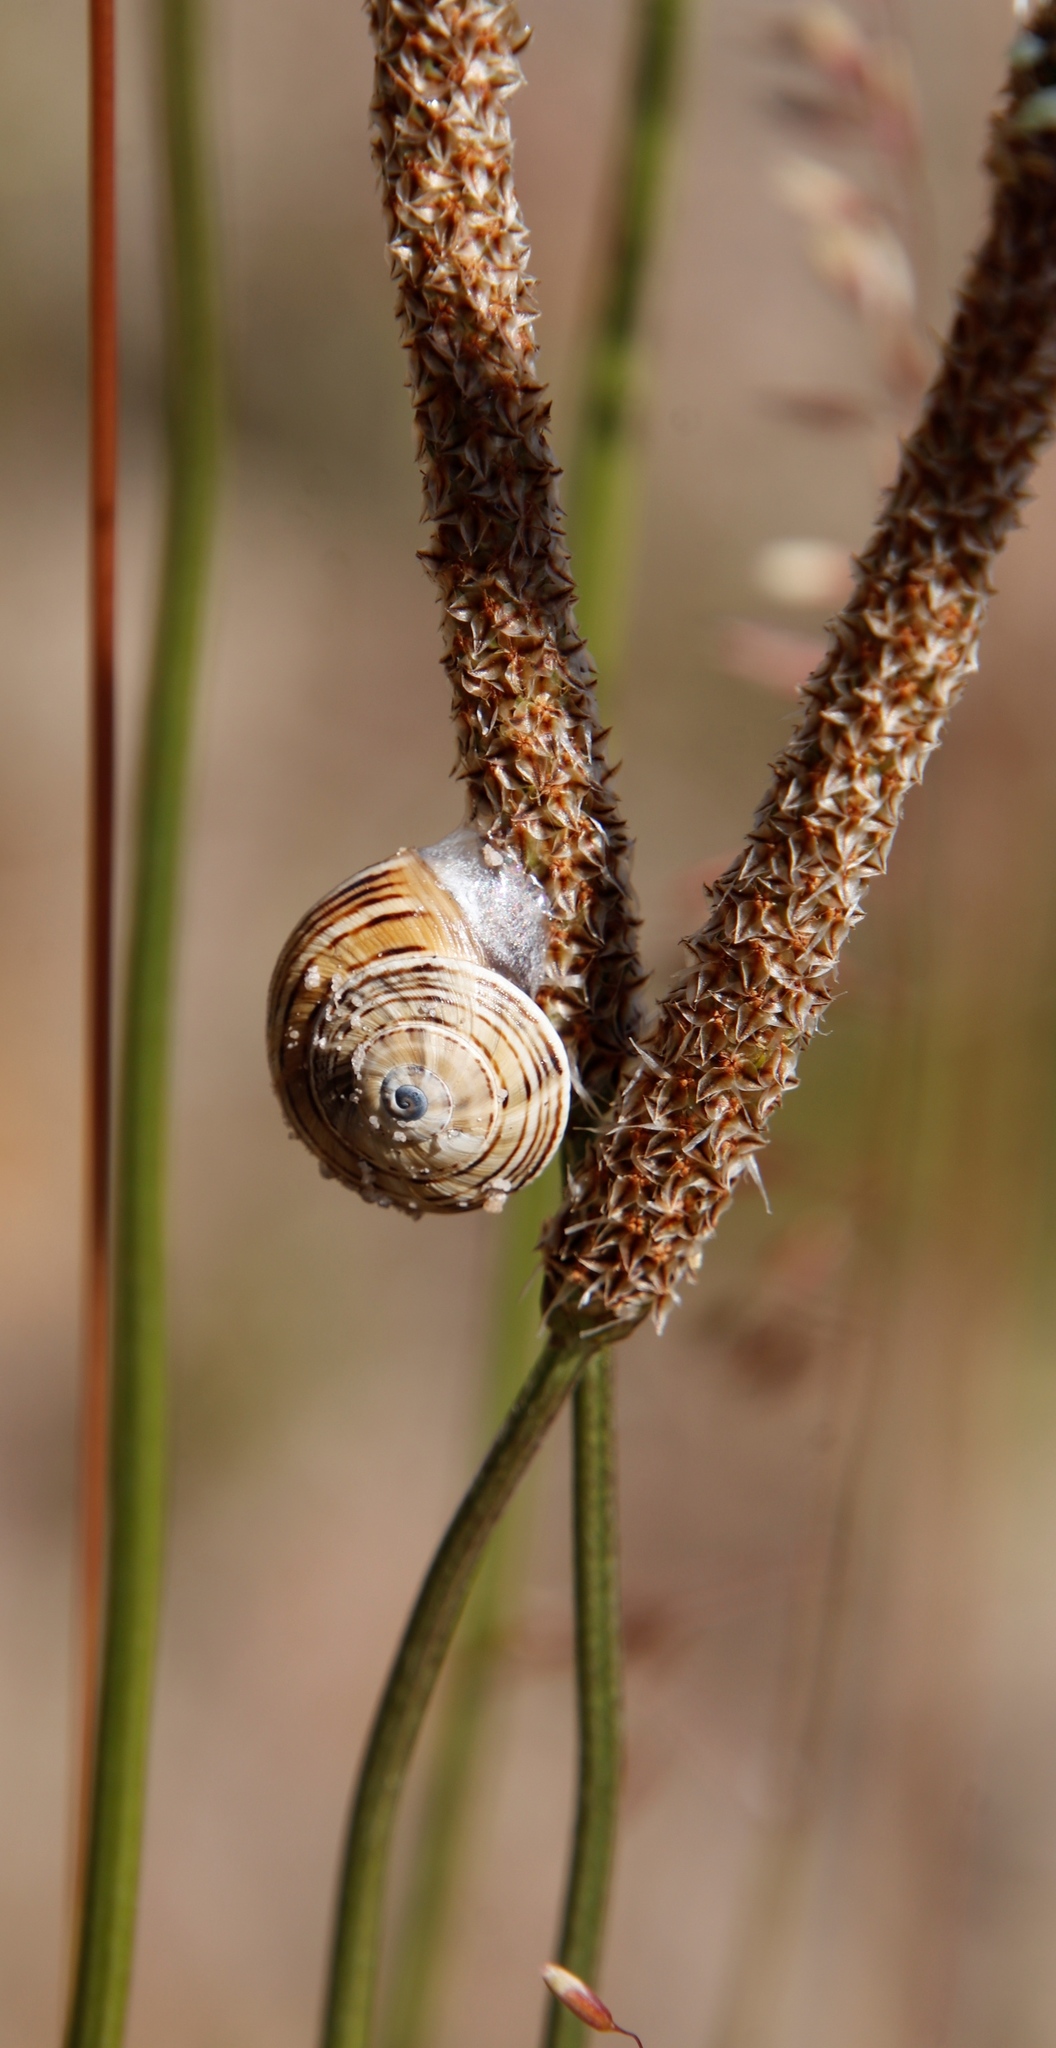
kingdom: Animalia
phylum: Mollusca
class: Gastropoda
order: Stylommatophora
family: Helicidae
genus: Theba
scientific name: Theba pisana
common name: White snail
